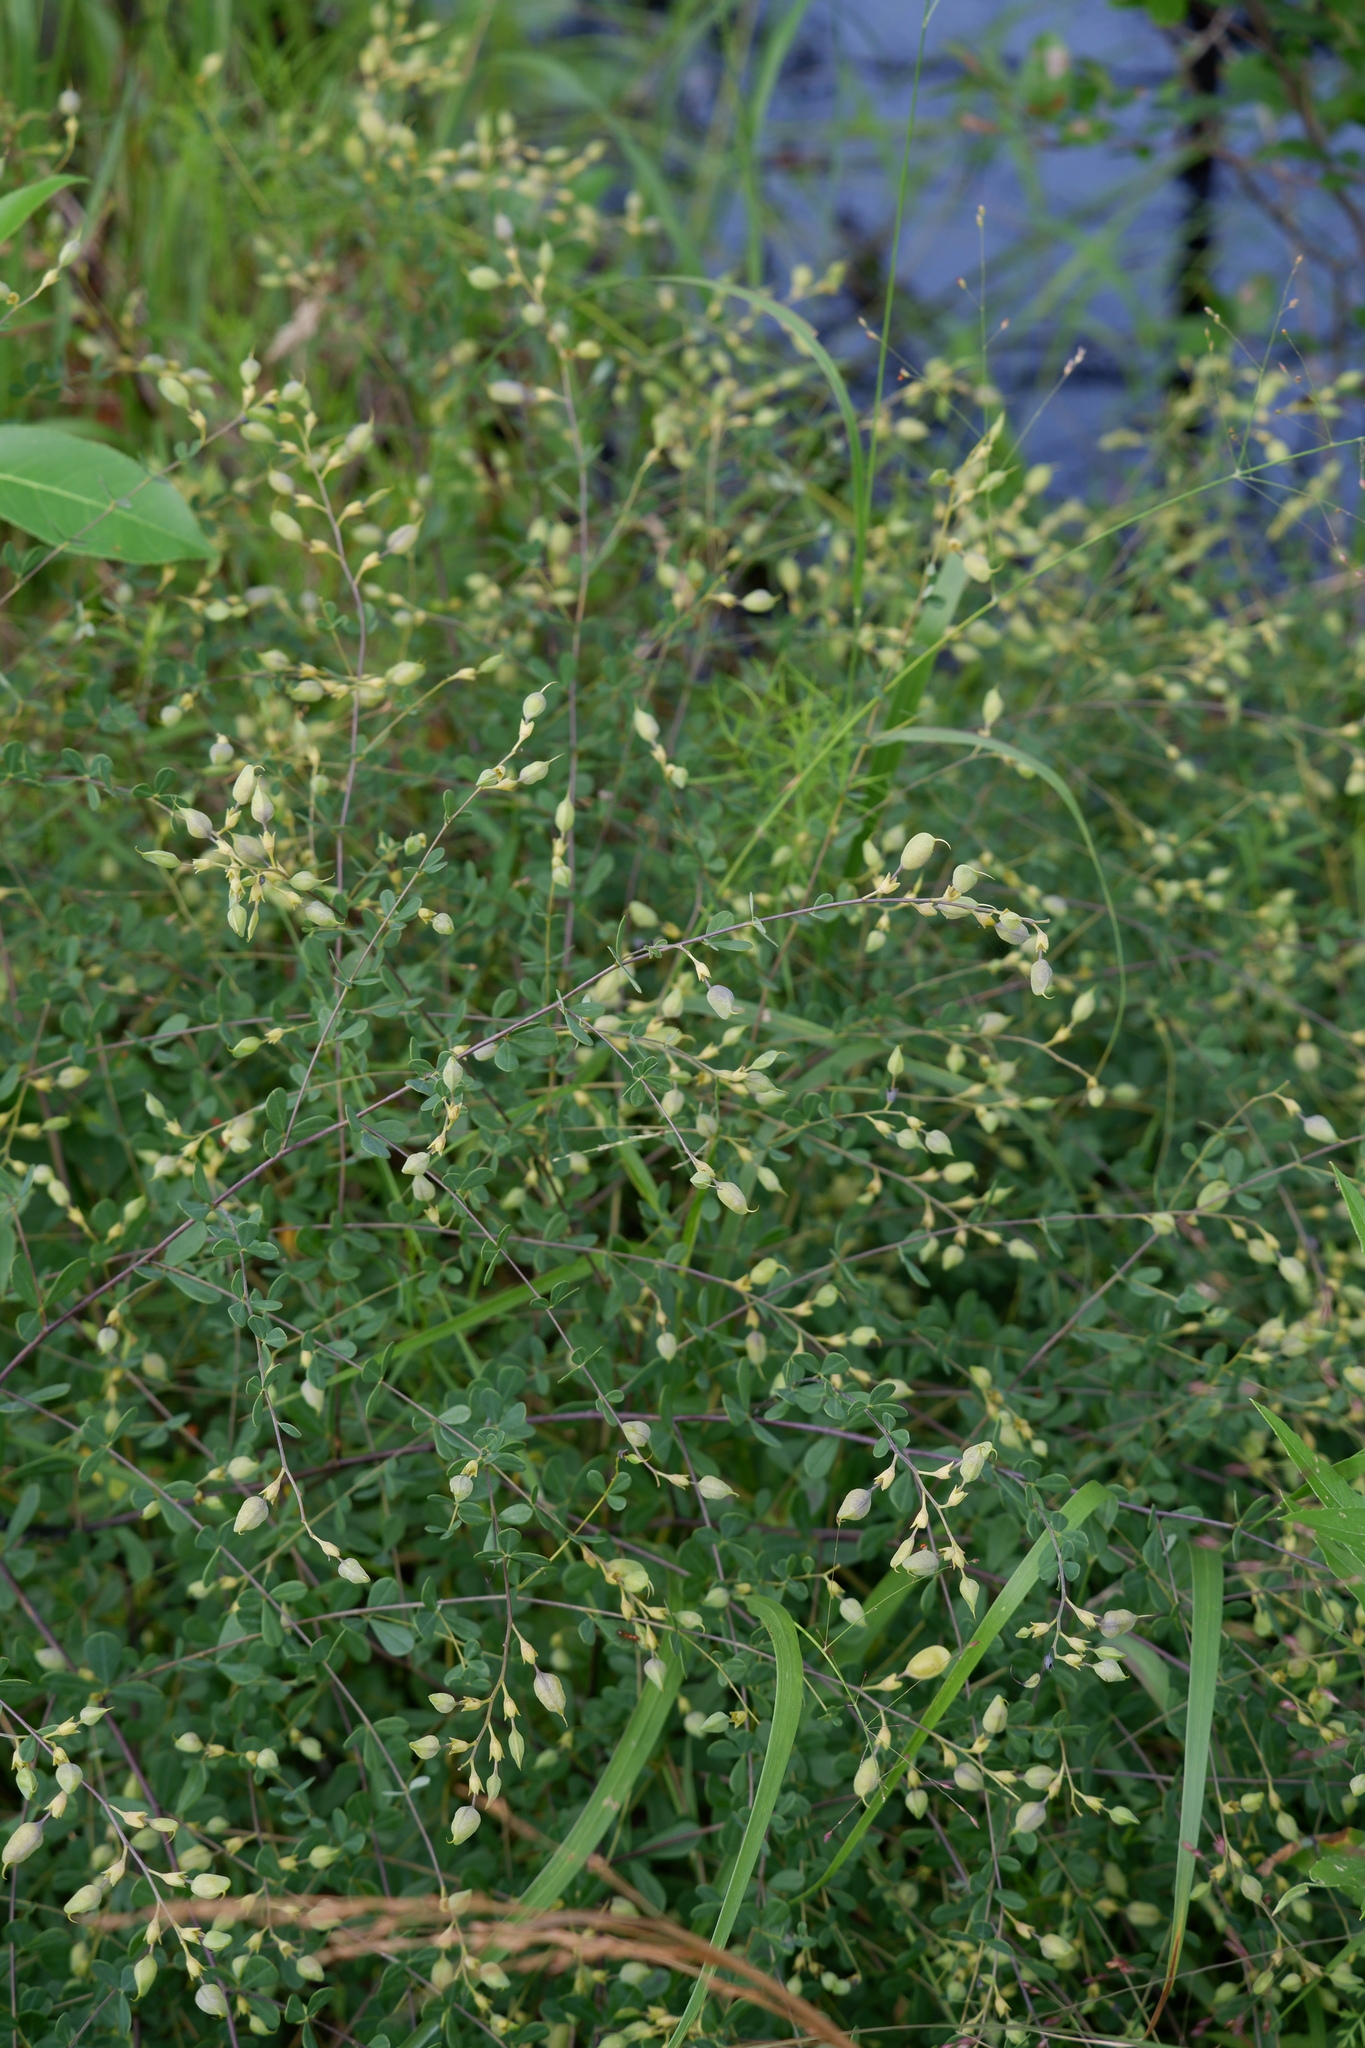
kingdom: Plantae
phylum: Tracheophyta
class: Magnoliopsida
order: Fabales
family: Fabaceae
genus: Baptisia
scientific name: Baptisia tinctoria
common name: Wild indigo
